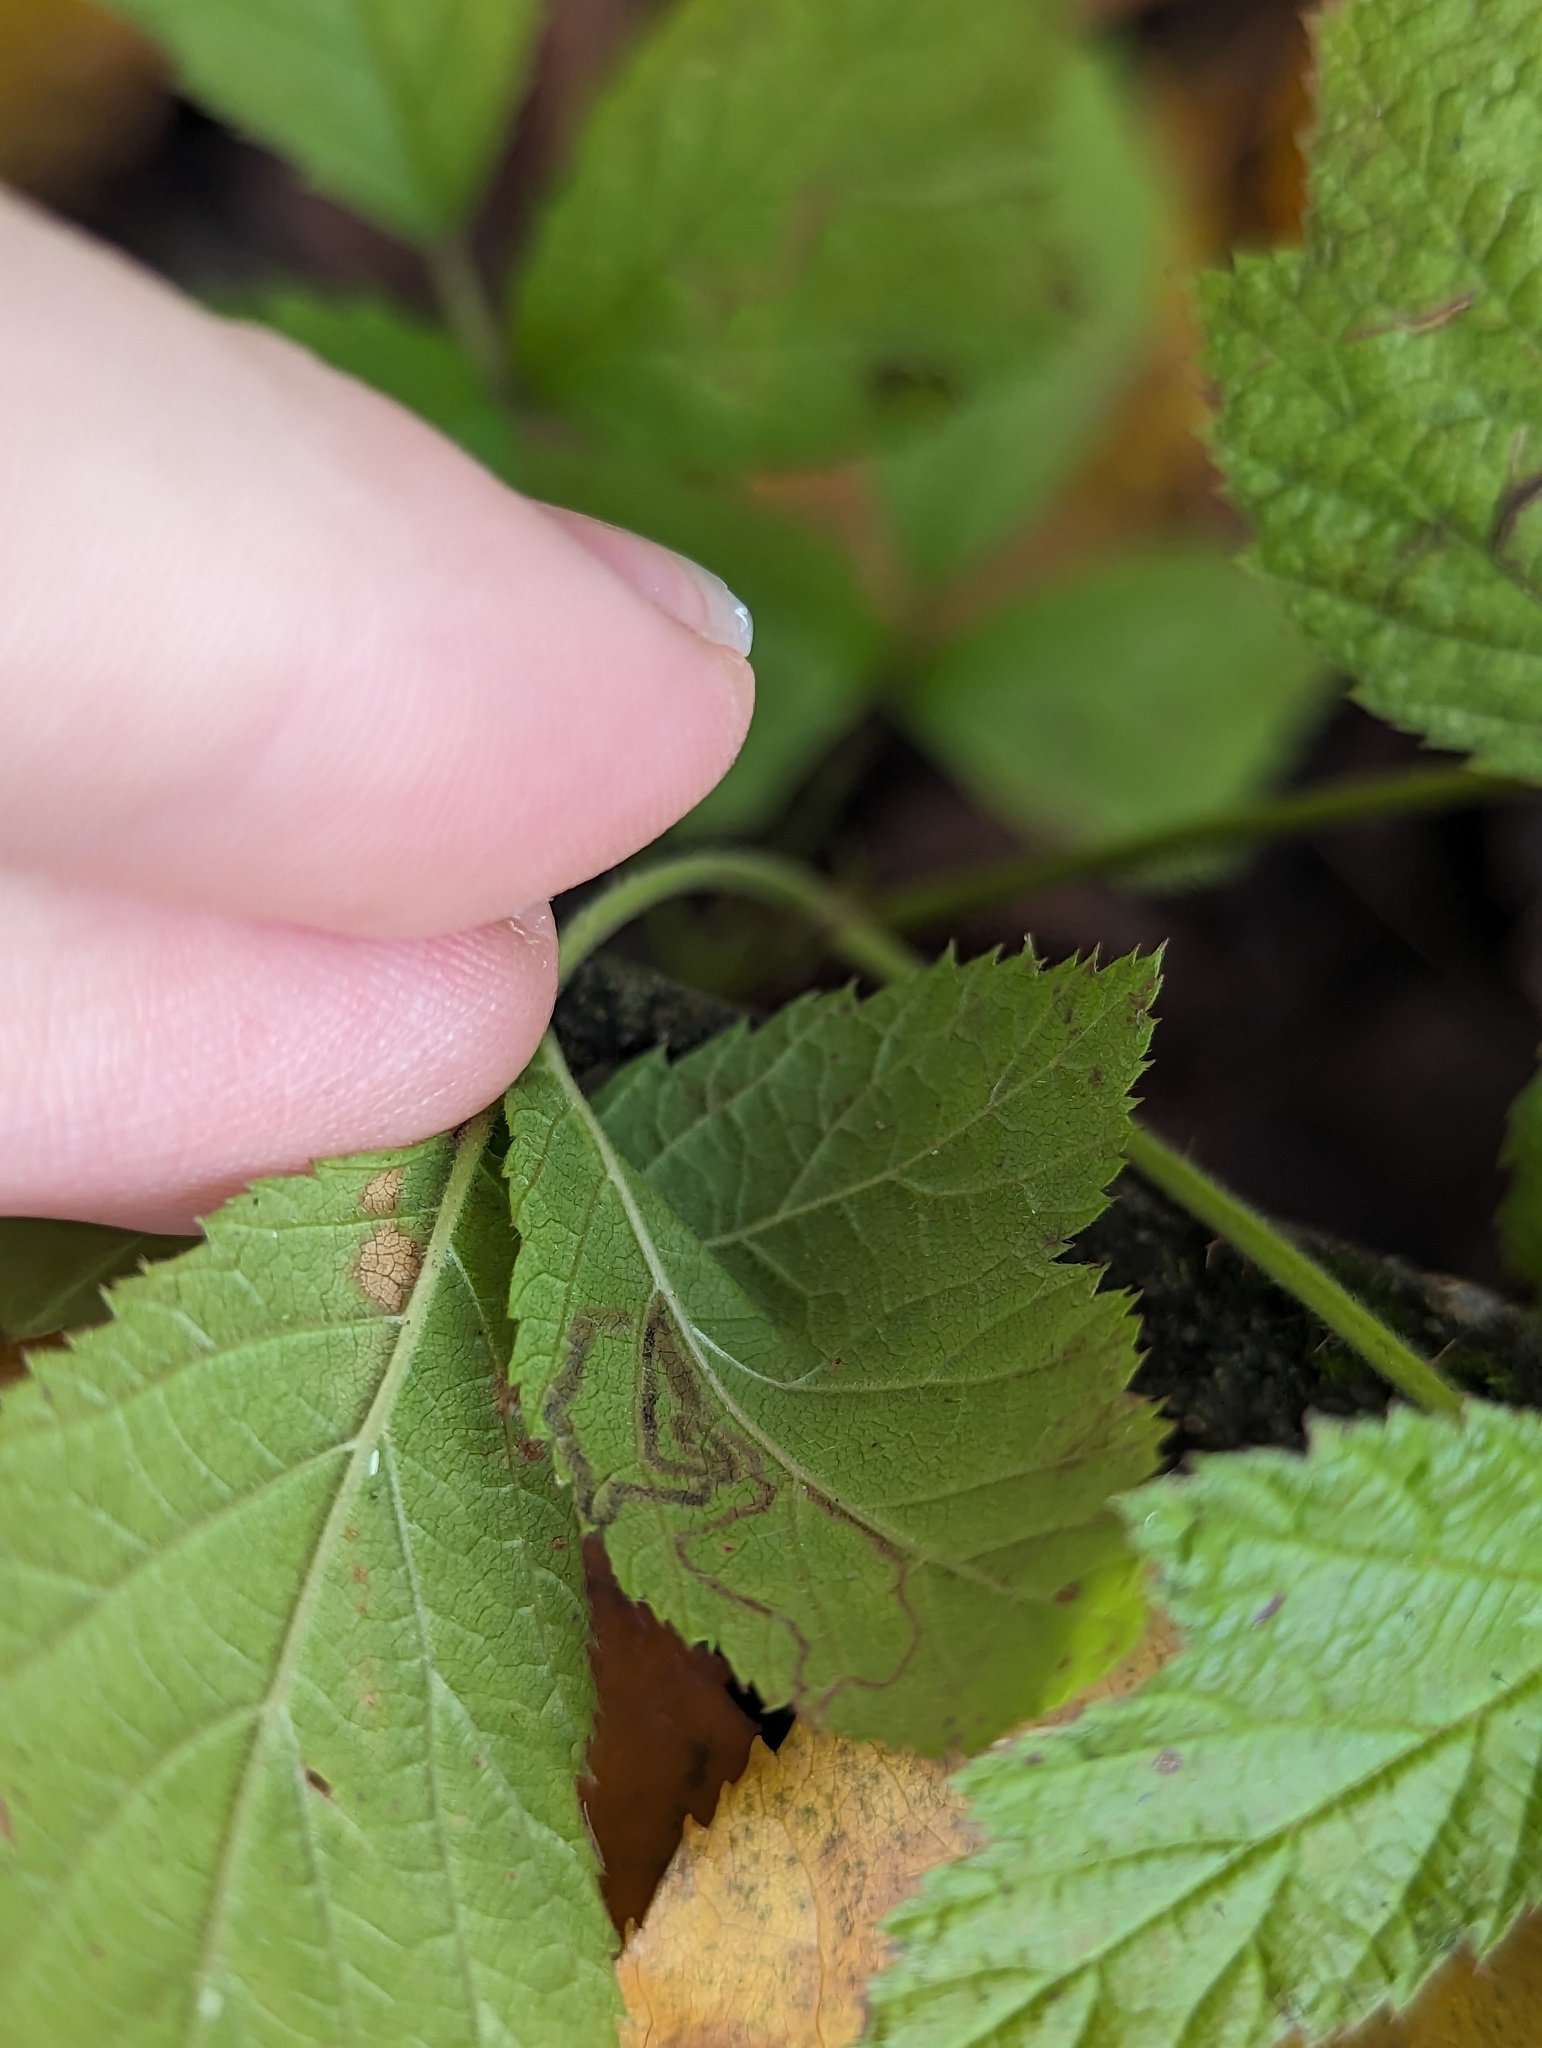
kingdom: Animalia
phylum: Arthropoda
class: Insecta
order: Lepidoptera
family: Nepticulidae
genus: Stigmella
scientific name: Stigmella villosella
